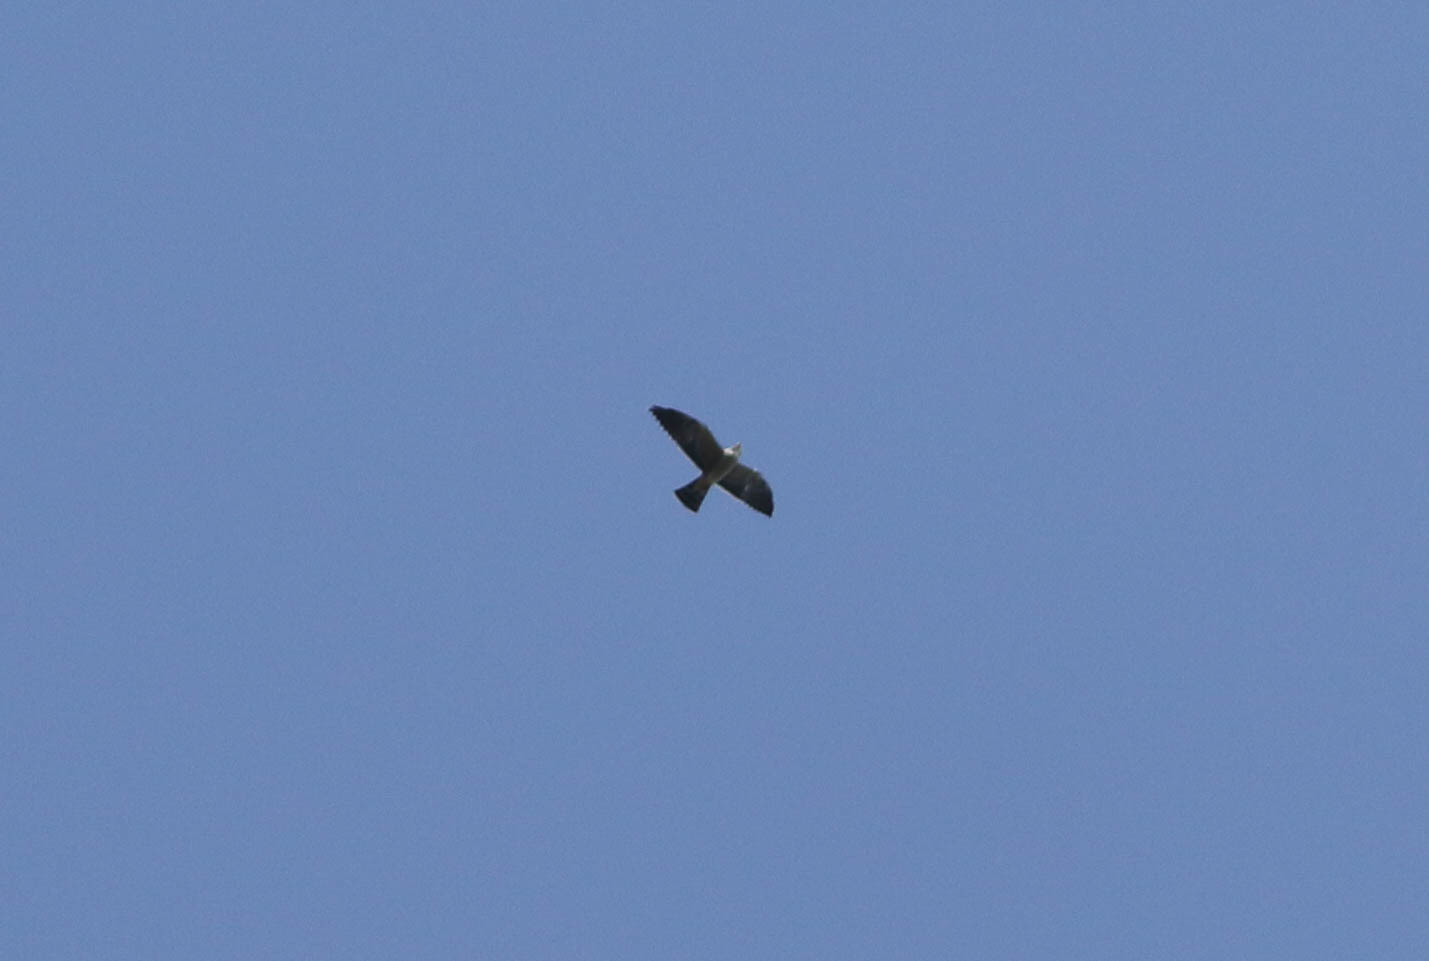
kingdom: Animalia
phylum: Chordata
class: Aves
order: Accipitriformes
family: Accipitridae
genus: Ictinia
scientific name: Ictinia mississippiensis
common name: Mississippi kite
